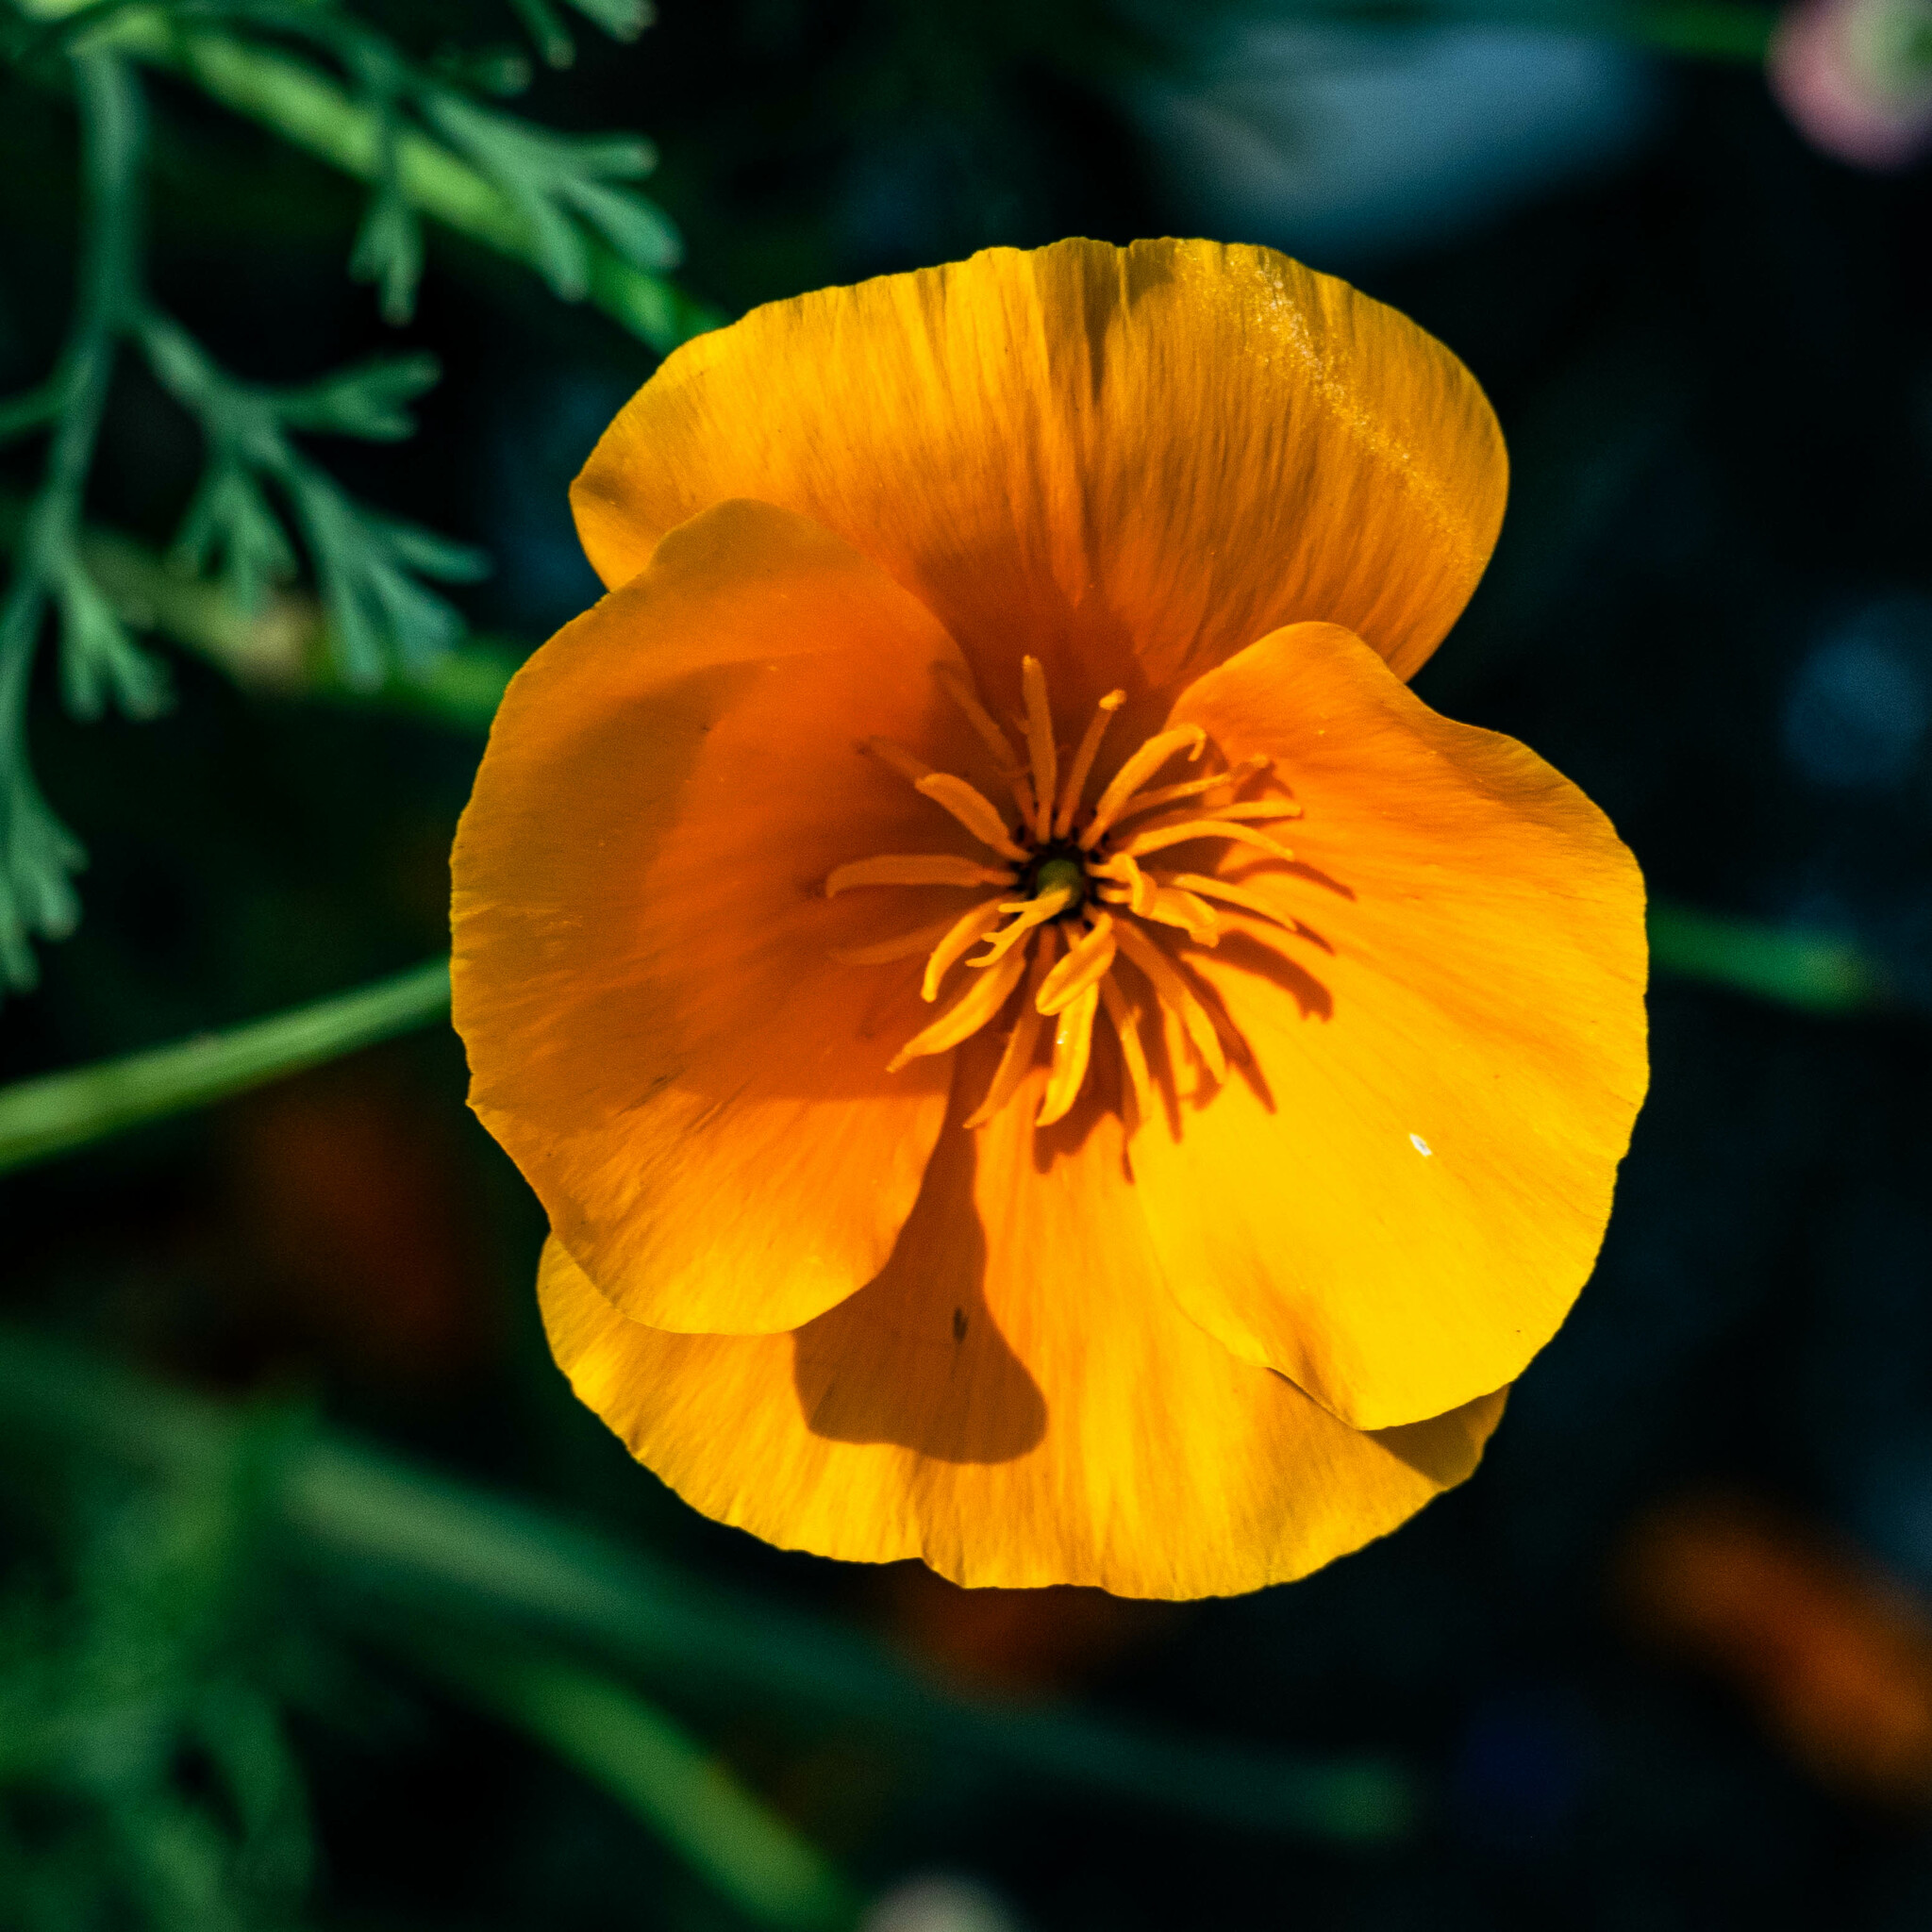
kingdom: Plantae
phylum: Tracheophyta
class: Magnoliopsida
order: Ranunculales
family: Papaveraceae
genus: Eschscholzia
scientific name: Eschscholzia californica
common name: California poppy
